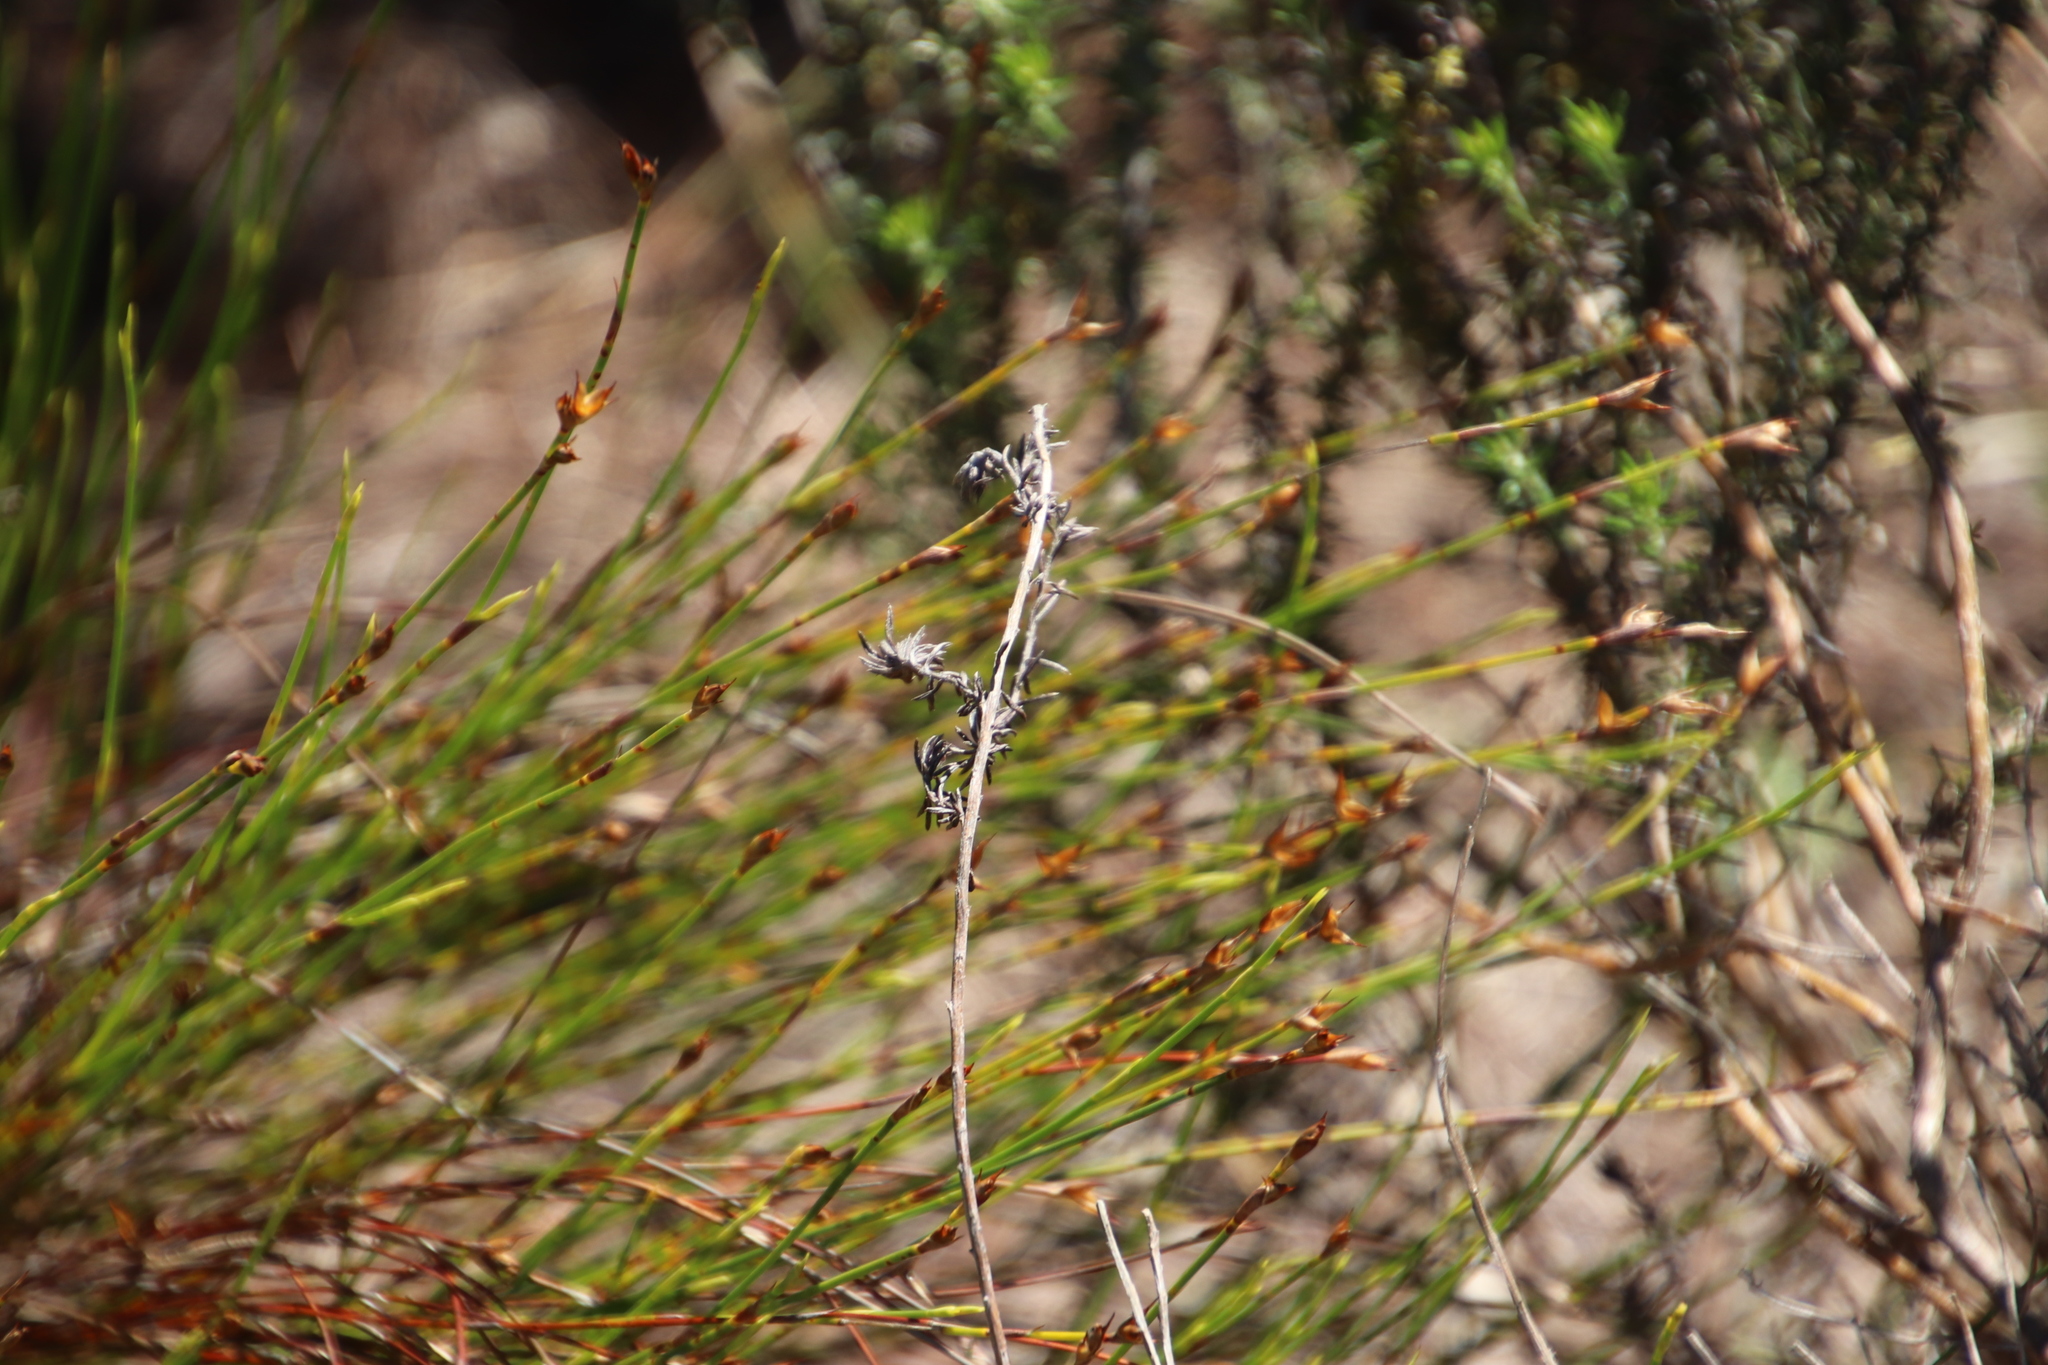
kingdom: Plantae
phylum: Tracheophyta
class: Liliopsida
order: Poales
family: Restionaceae
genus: Restio
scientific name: Restio capensis
